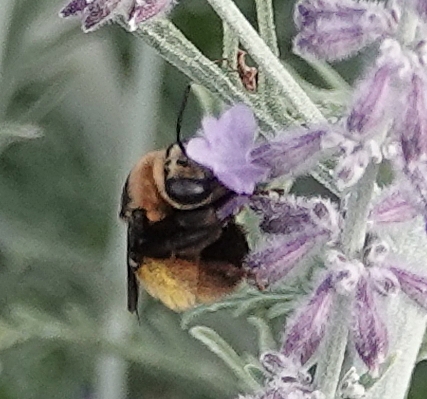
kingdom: Animalia
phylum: Arthropoda
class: Insecta
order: Hymenoptera
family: Apidae
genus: Svastra
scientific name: Svastra obliqua
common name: Oblique longhorn
